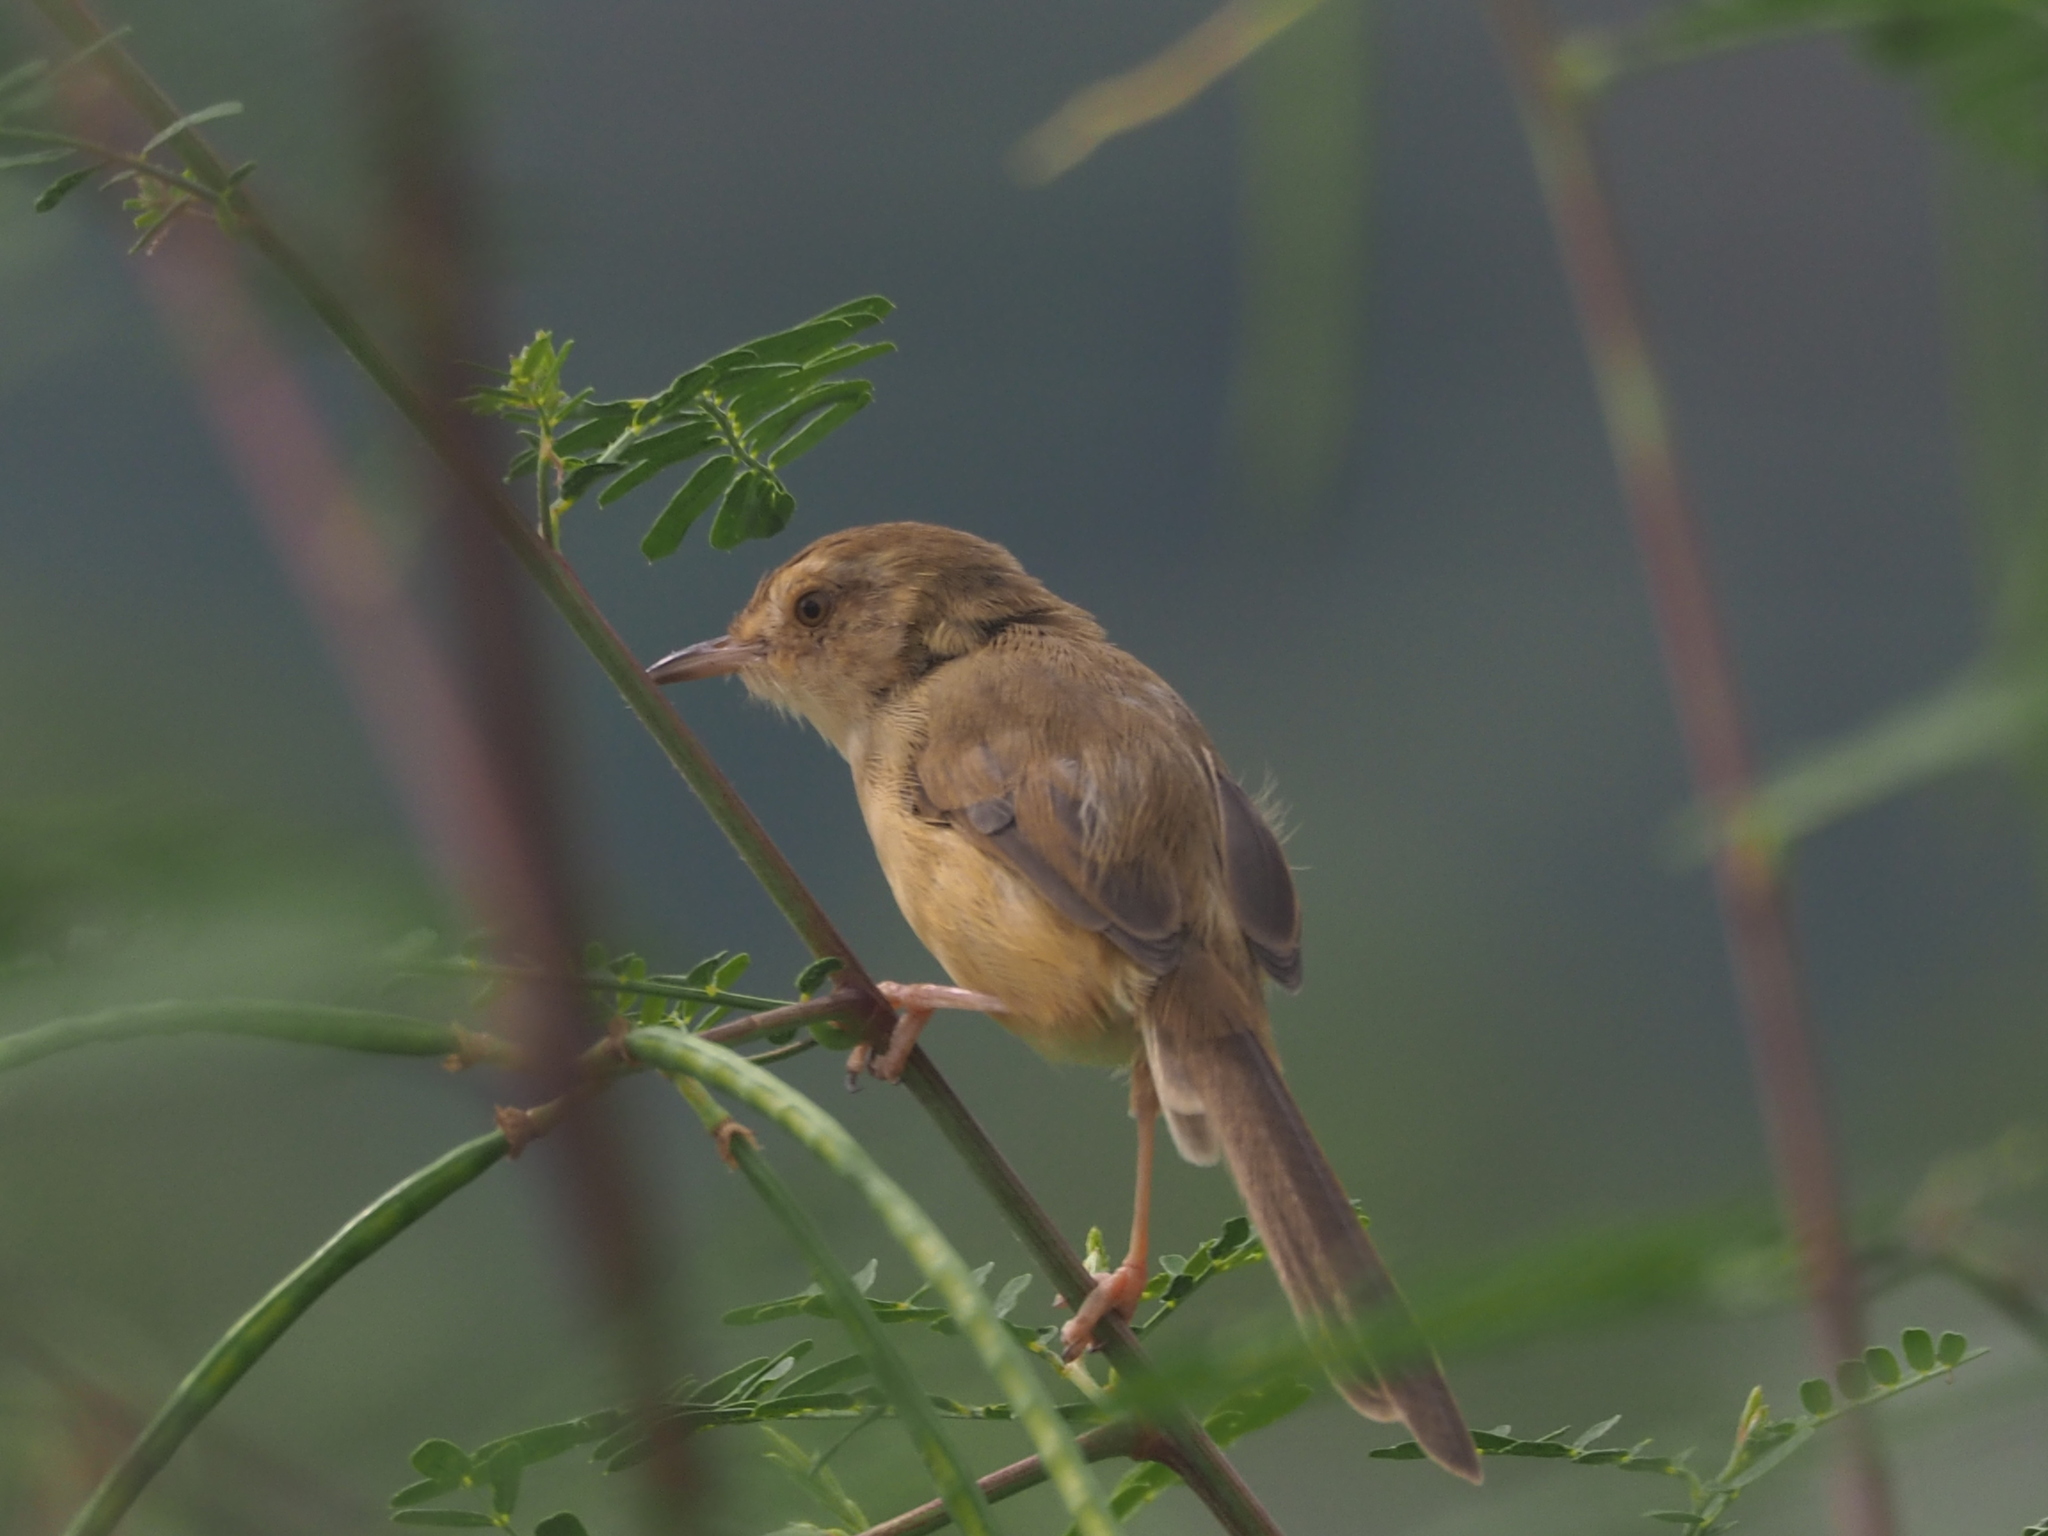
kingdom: Animalia
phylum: Chordata
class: Aves
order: Passeriformes
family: Cisticolidae
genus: Prinia
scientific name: Prinia inornata
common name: Plain prinia
